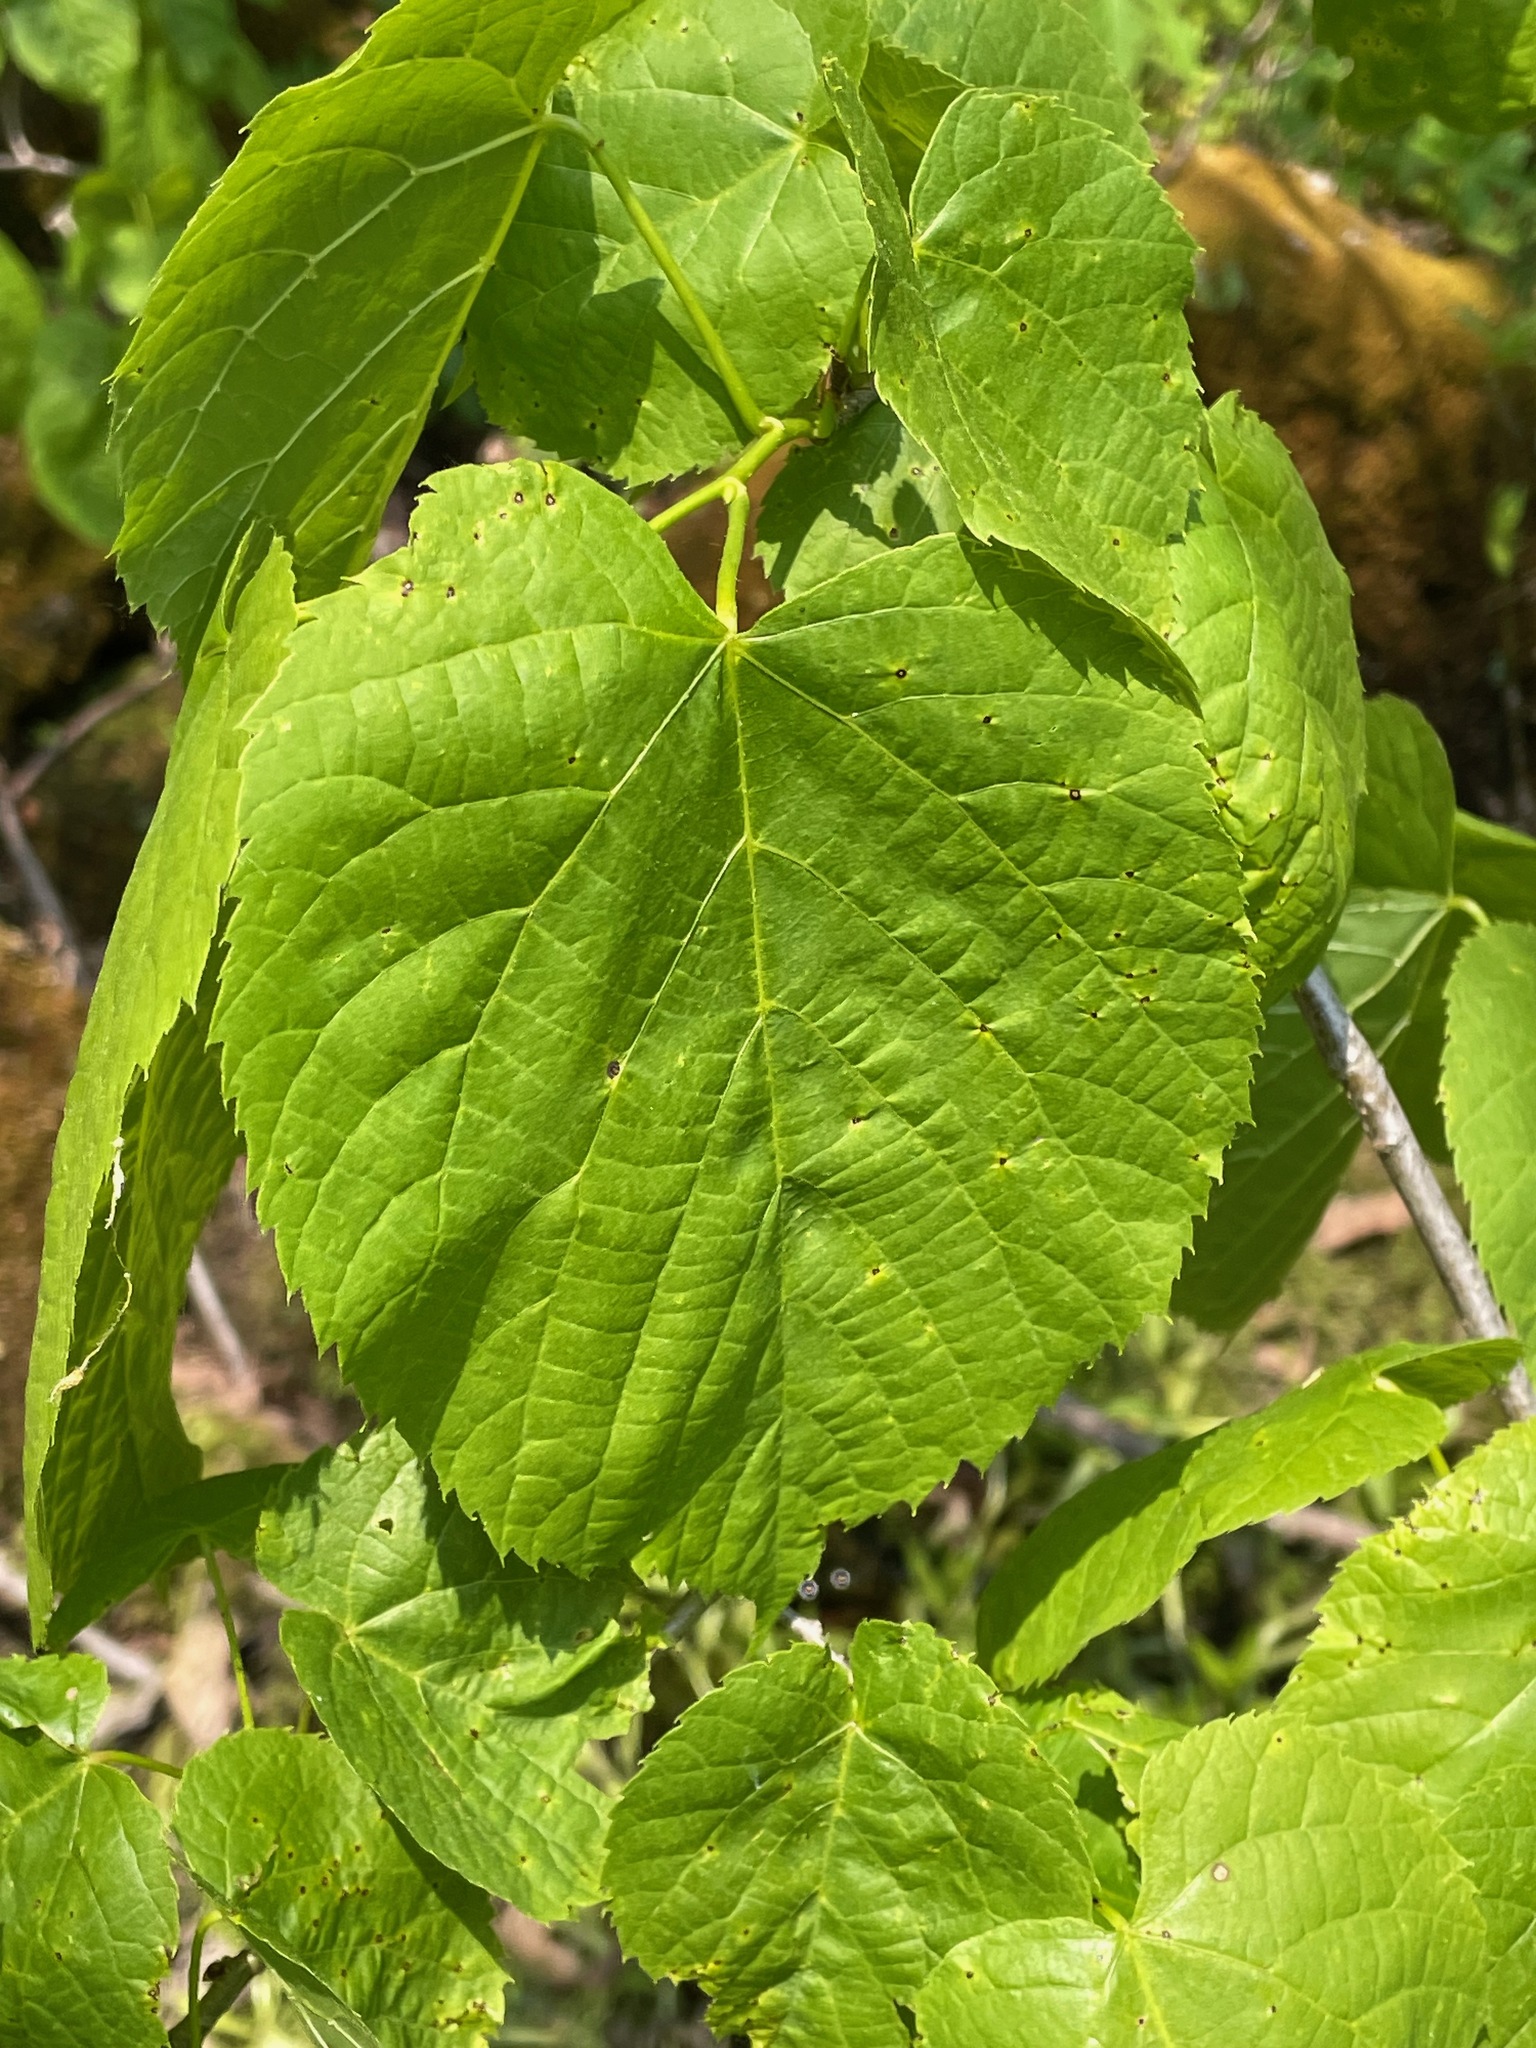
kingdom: Plantae
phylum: Tracheophyta
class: Magnoliopsida
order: Malvales
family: Malvaceae
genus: Tilia
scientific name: Tilia americana
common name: Basswood
